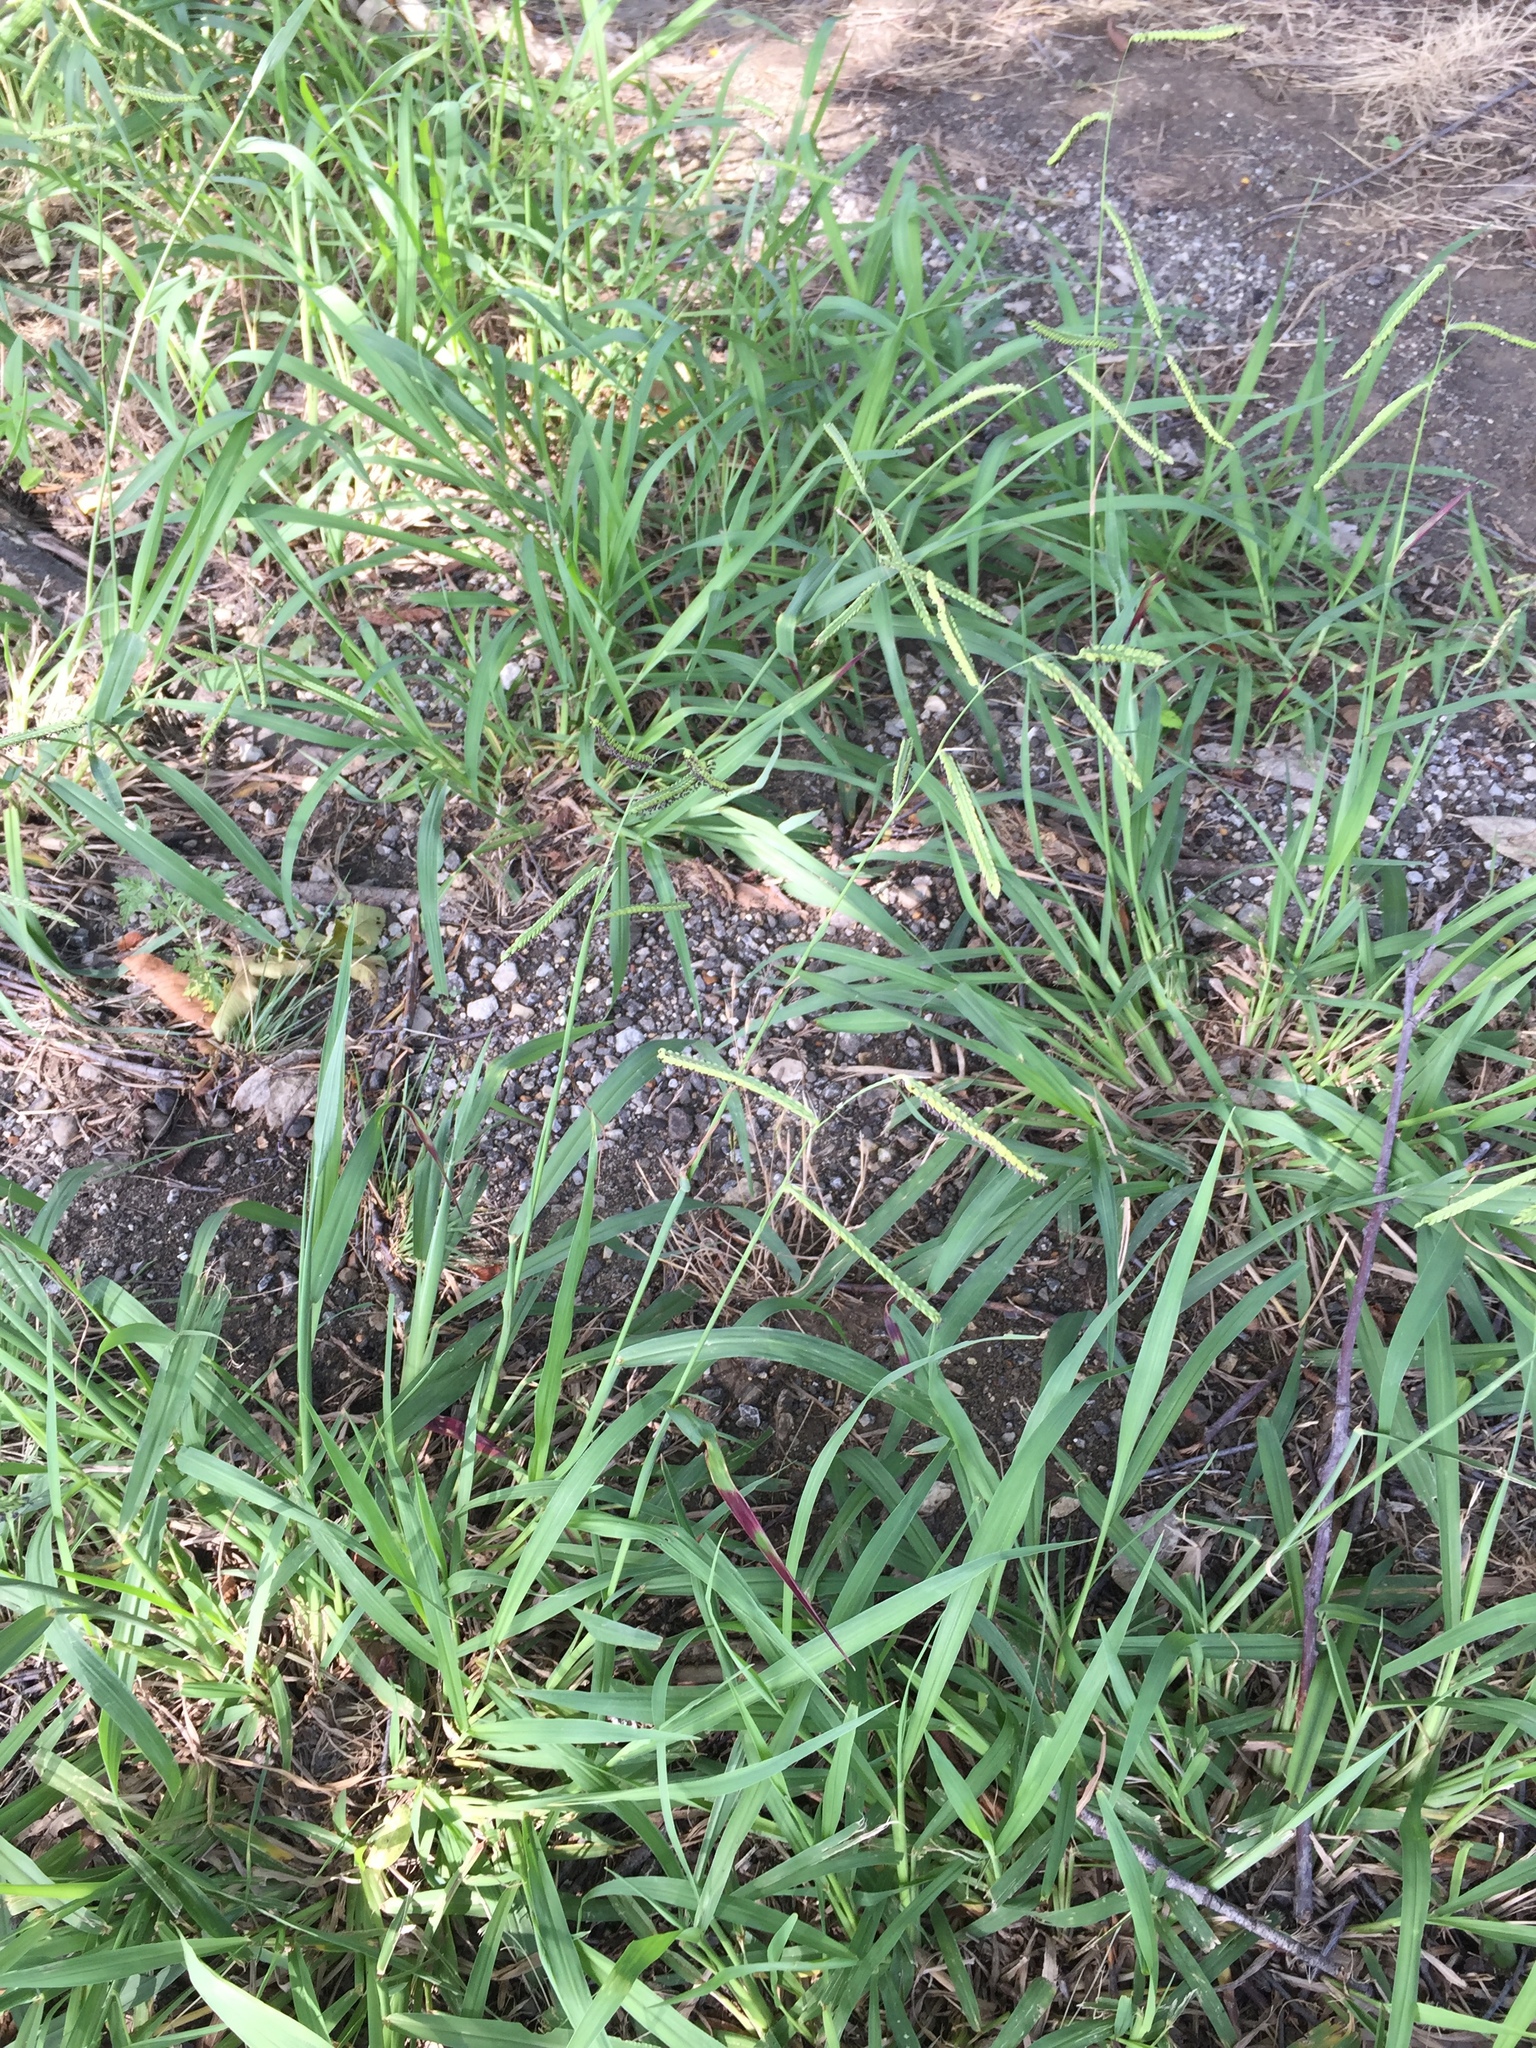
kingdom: Plantae
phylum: Tracheophyta
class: Liliopsida
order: Poales
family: Poaceae
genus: Paspalum
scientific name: Paspalum dilatatum
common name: Dallisgrass
